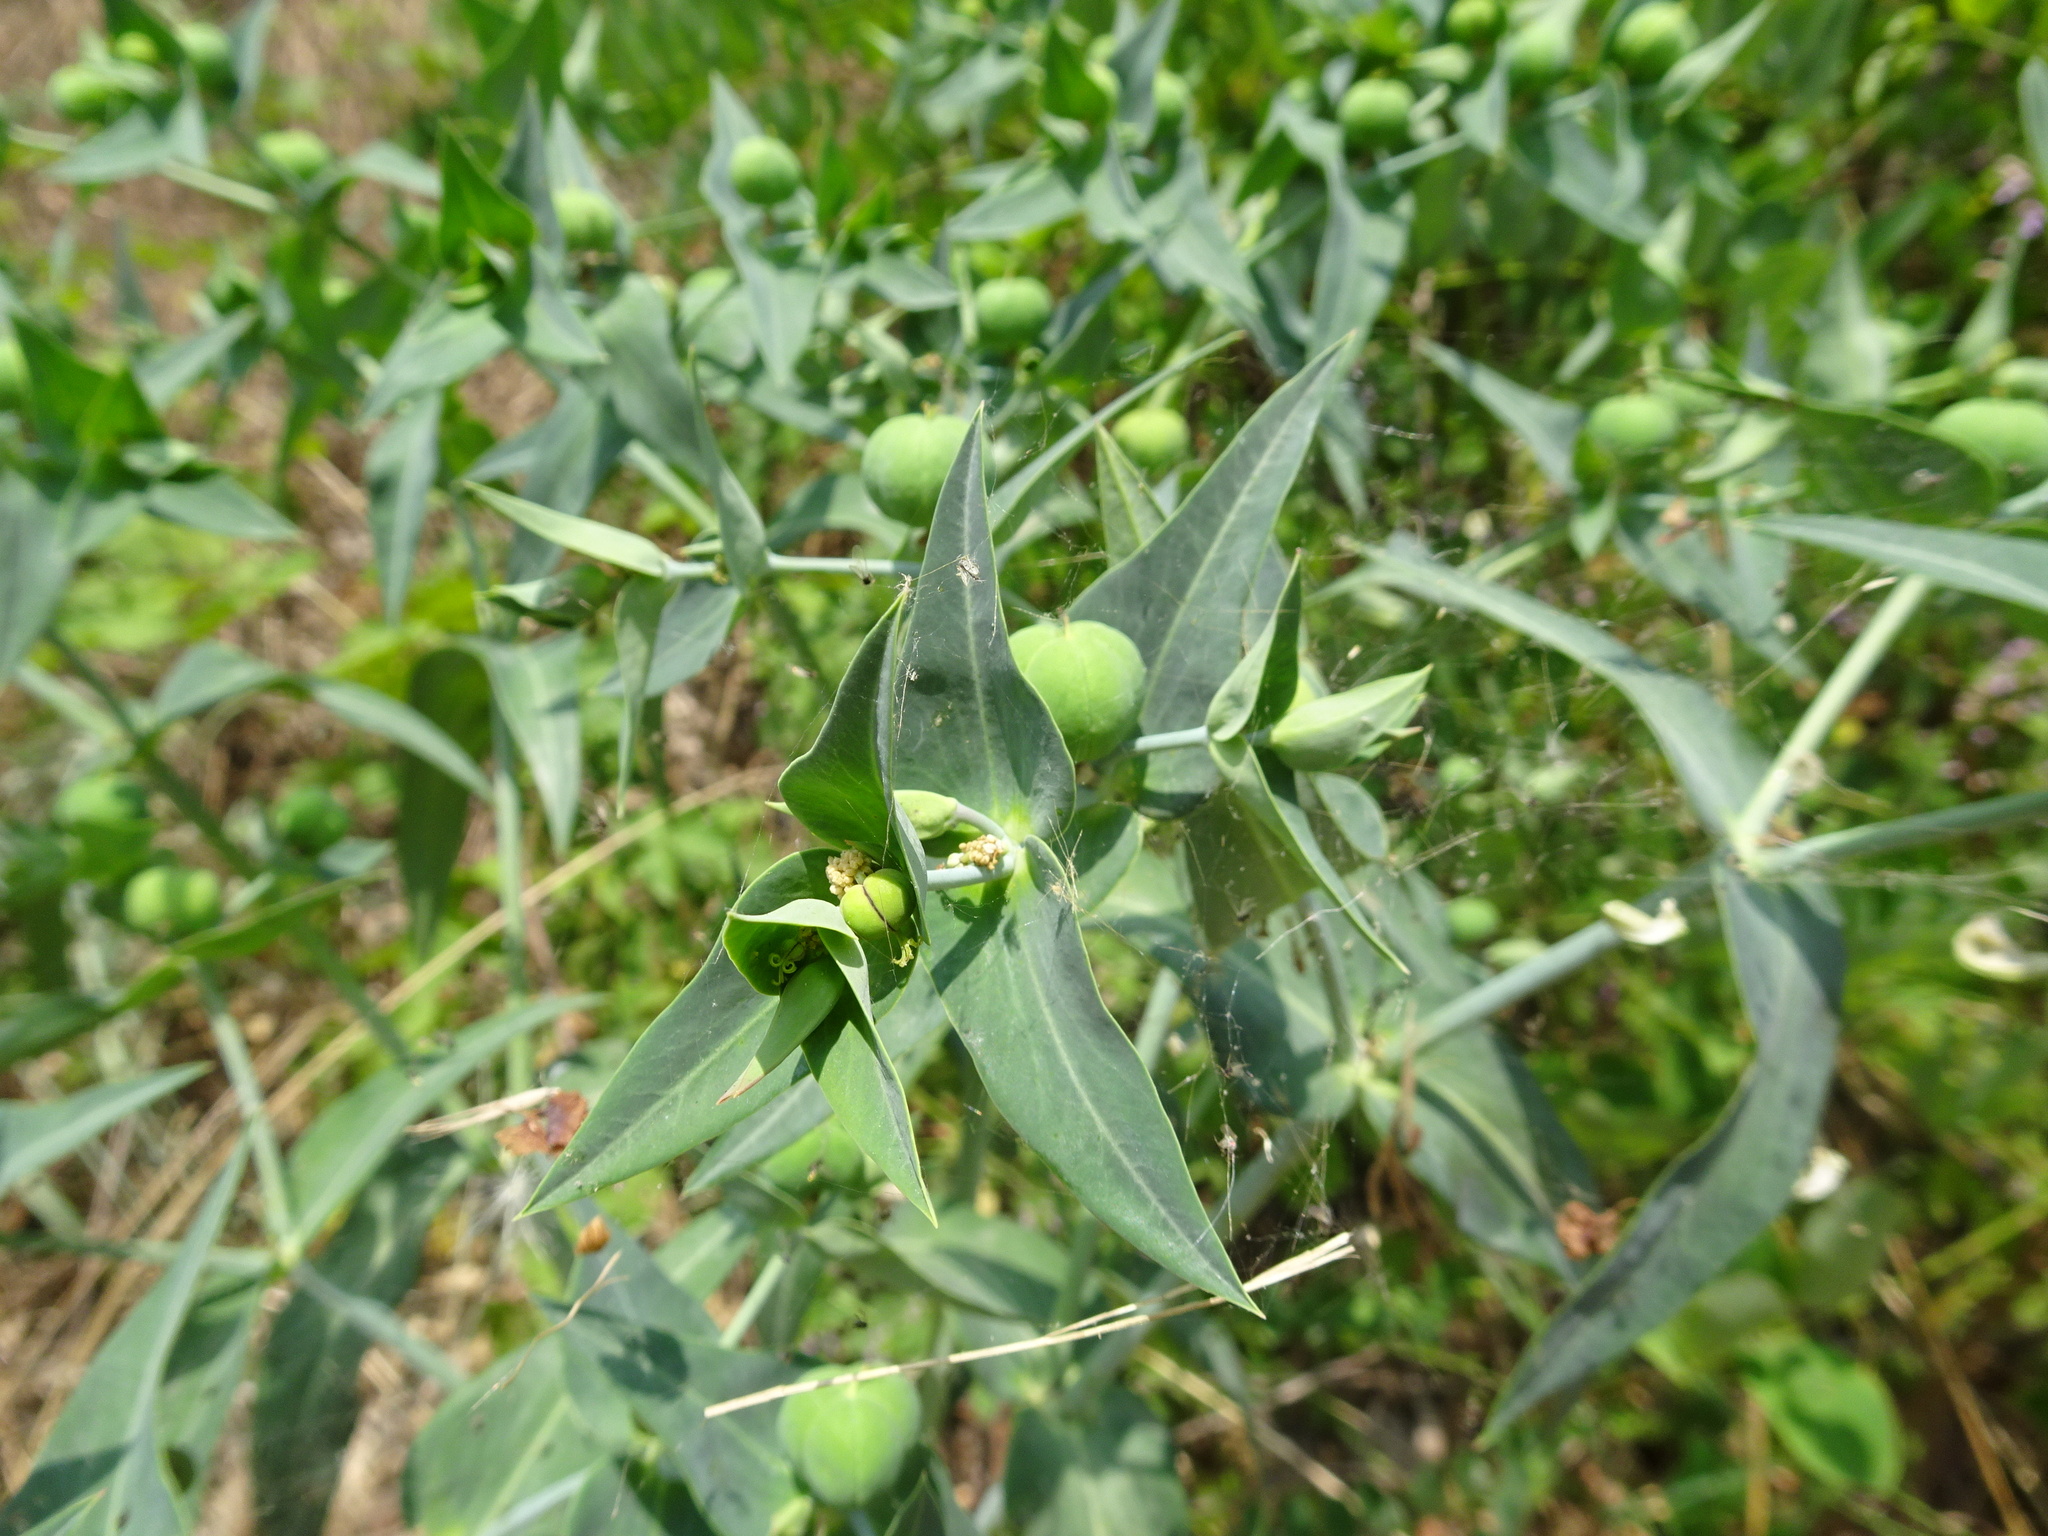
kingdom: Plantae
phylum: Tracheophyta
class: Magnoliopsida
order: Malpighiales
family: Euphorbiaceae
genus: Euphorbia
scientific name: Euphorbia lathyris
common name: Caper spurge
